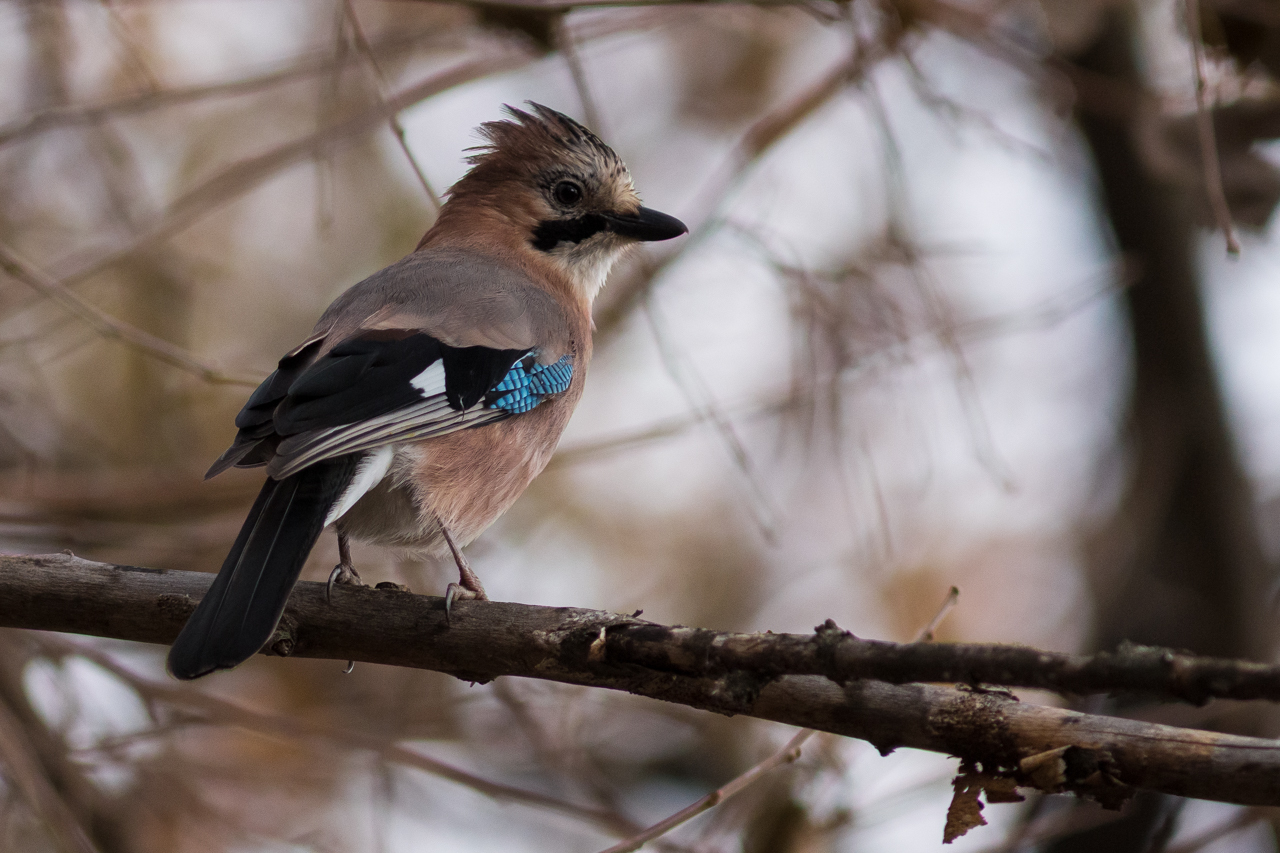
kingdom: Animalia
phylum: Chordata
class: Aves
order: Passeriformes
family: Corvidae
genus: Garrulus
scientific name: Garrulus glandarius
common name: Eurasian jay
